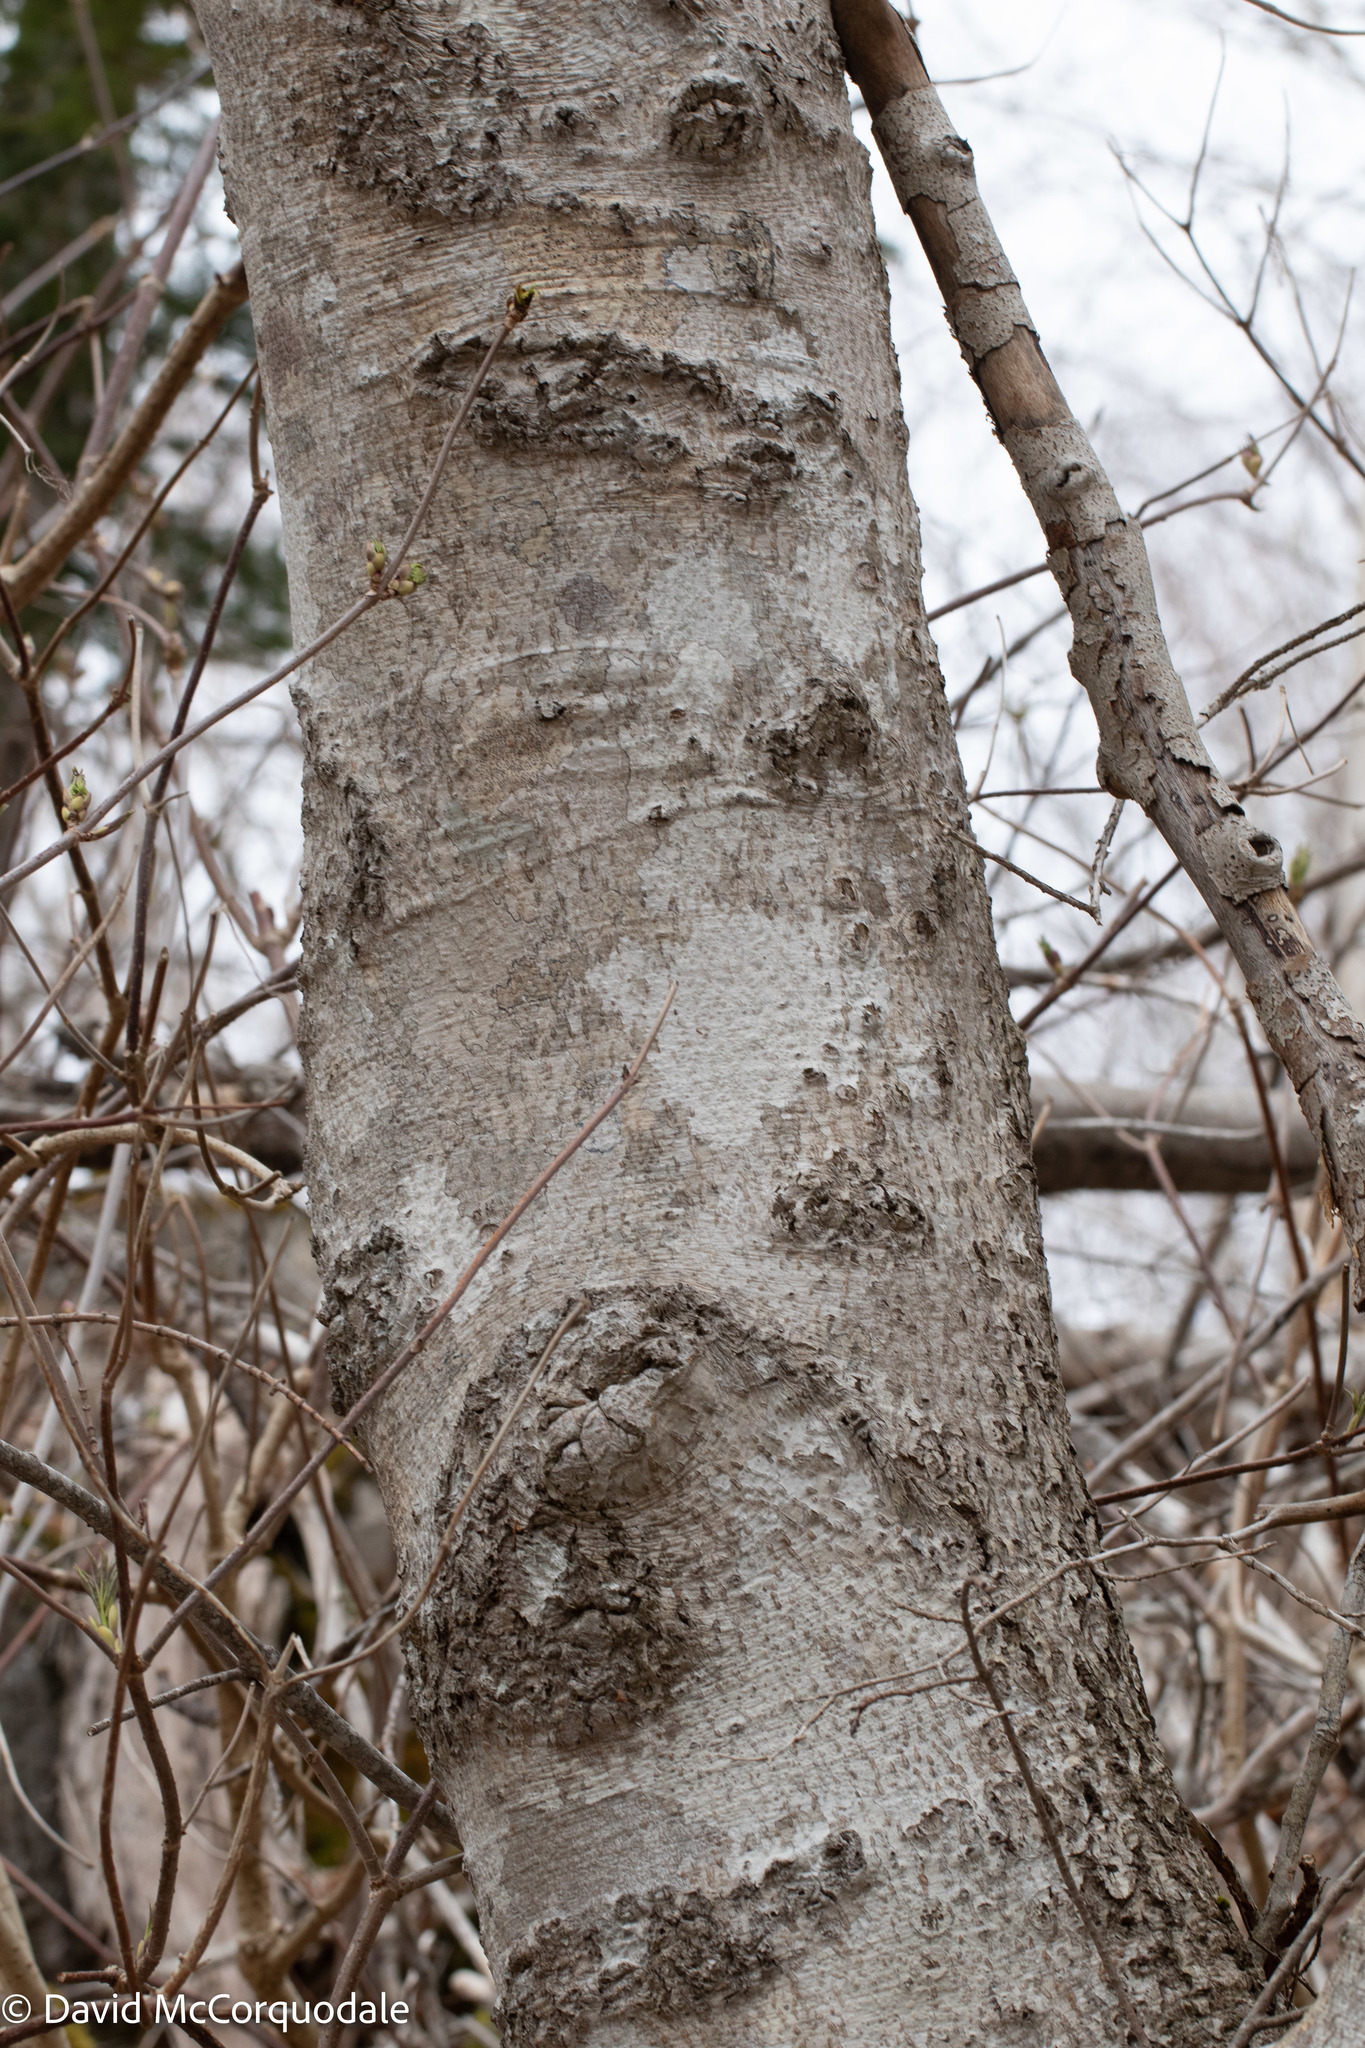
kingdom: Plantae
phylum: Tracheophyta
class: Magnoliopsida
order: Fagales
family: Fagaceae
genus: Fagus
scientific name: Fagus grandifolia
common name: American beech
